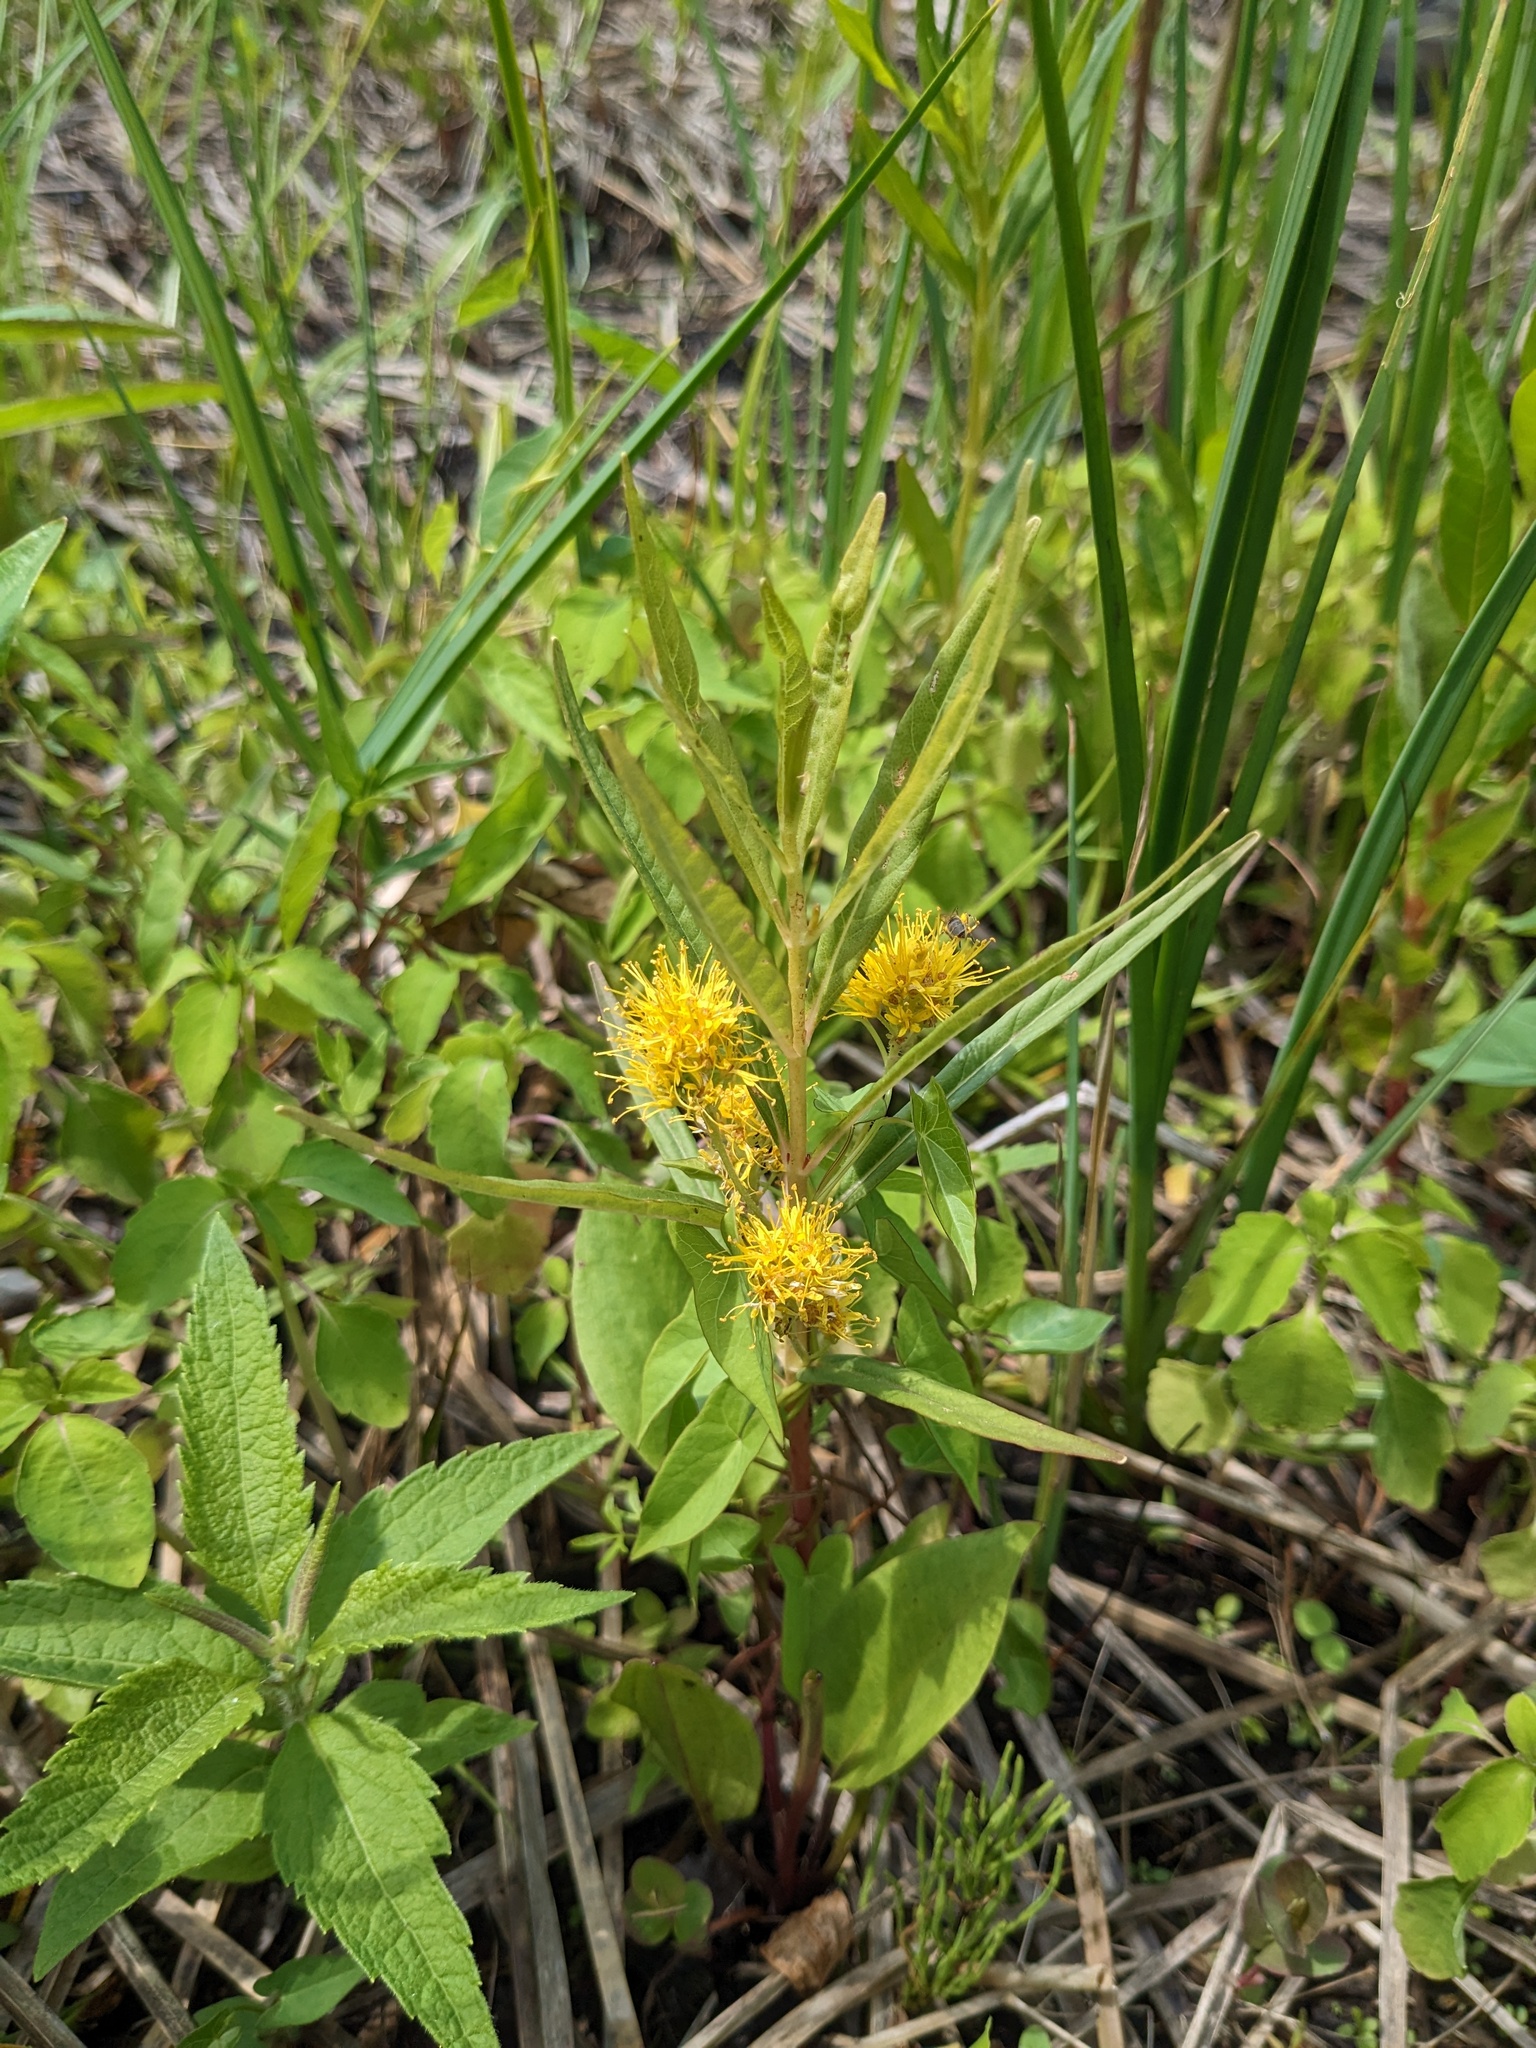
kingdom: Plantae
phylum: Tracheophyta
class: Magnoliopsida
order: Ericales
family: Primulaceae
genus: Lysimachia
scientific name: Lysimachia thyrsiflora
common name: Tufted loosestrife
